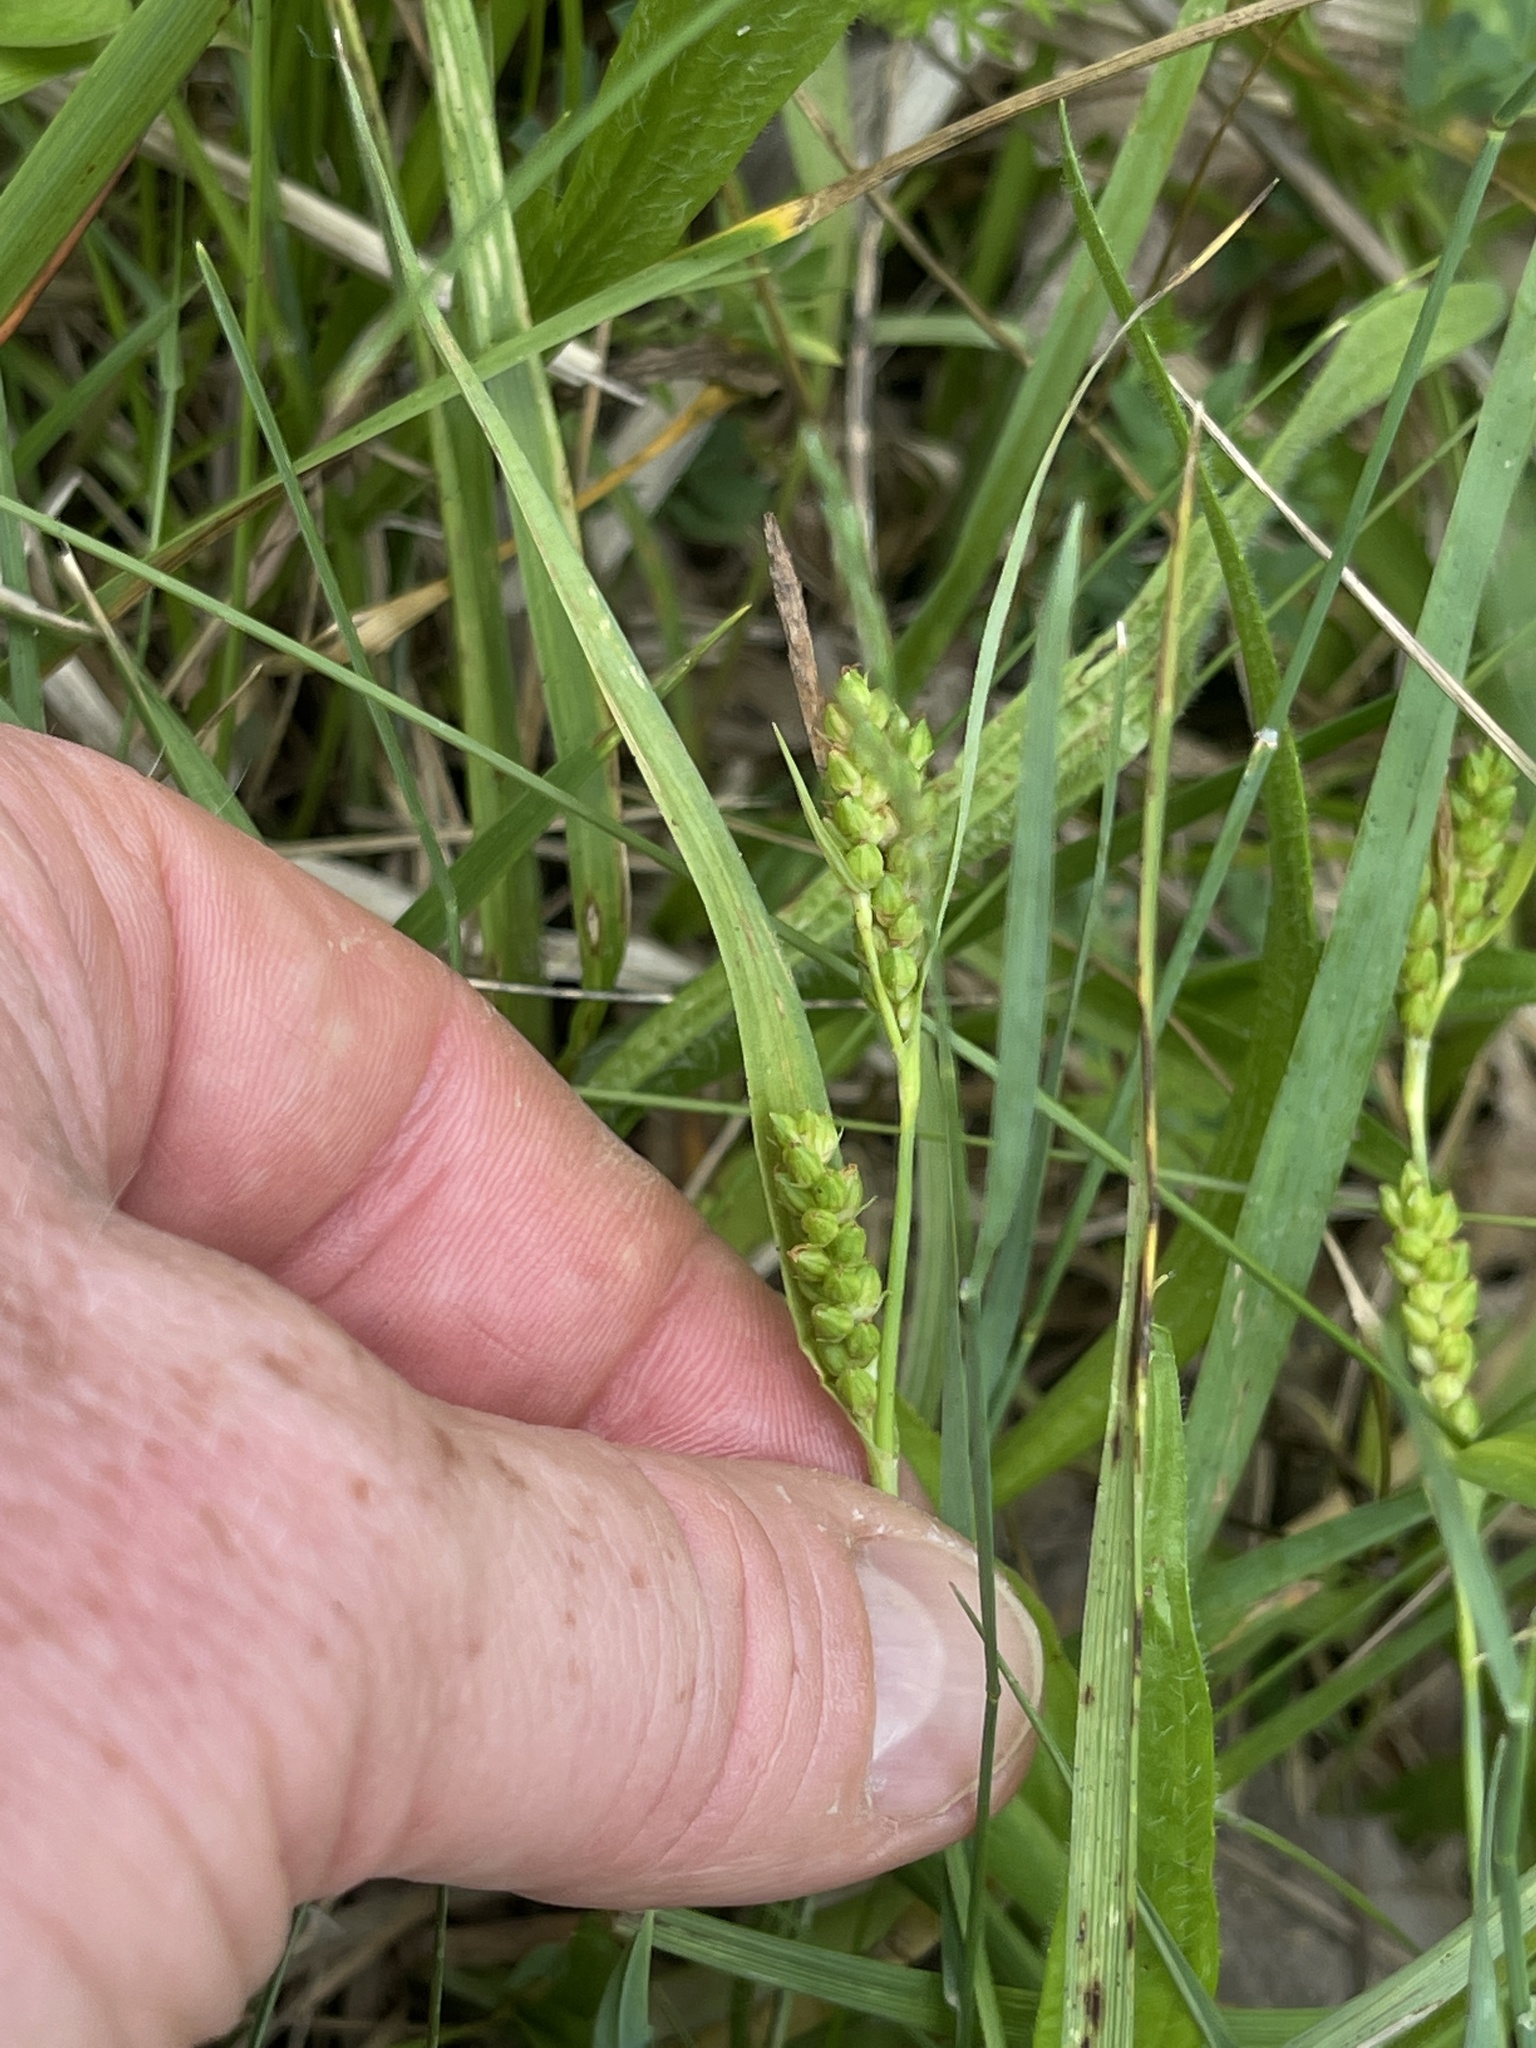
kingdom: Plantae
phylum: Tracheophyta
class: Liliopsida
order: Poales
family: Cyperaceae
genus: Carex
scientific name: Carex glaucodea
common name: Blue sedge
